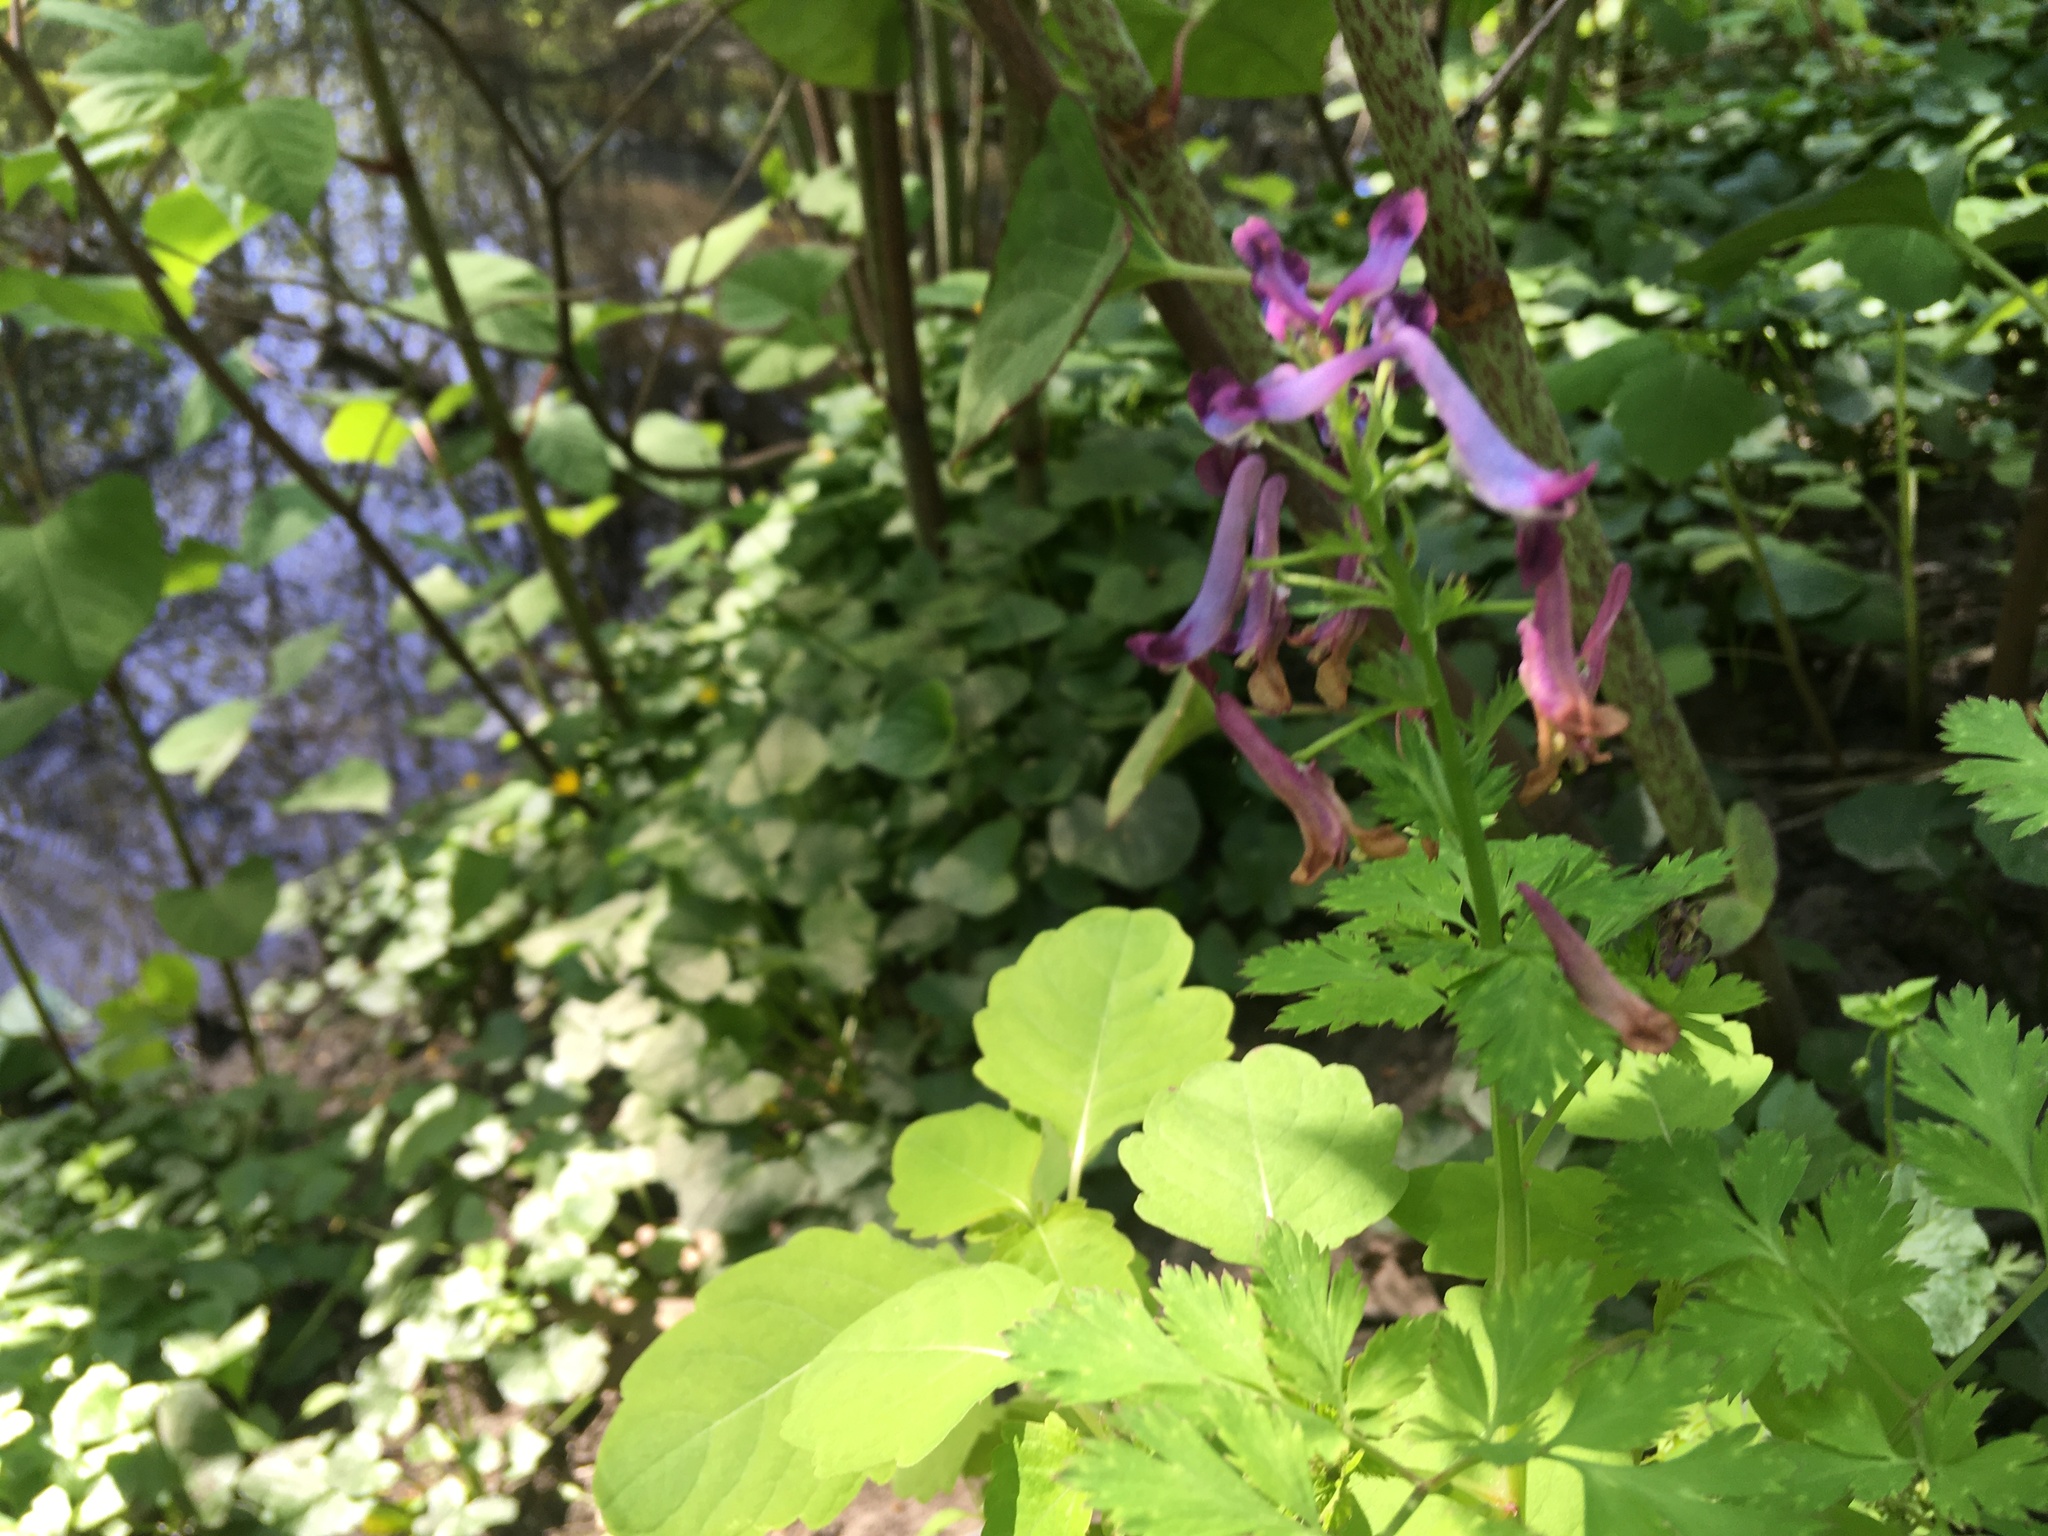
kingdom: Plantae
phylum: Tracheophyta
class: Magnoliopsida
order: Ranunculales
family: Papaveraceae
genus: Corydalis
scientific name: Corydalis incisa
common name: Incised fumewort
